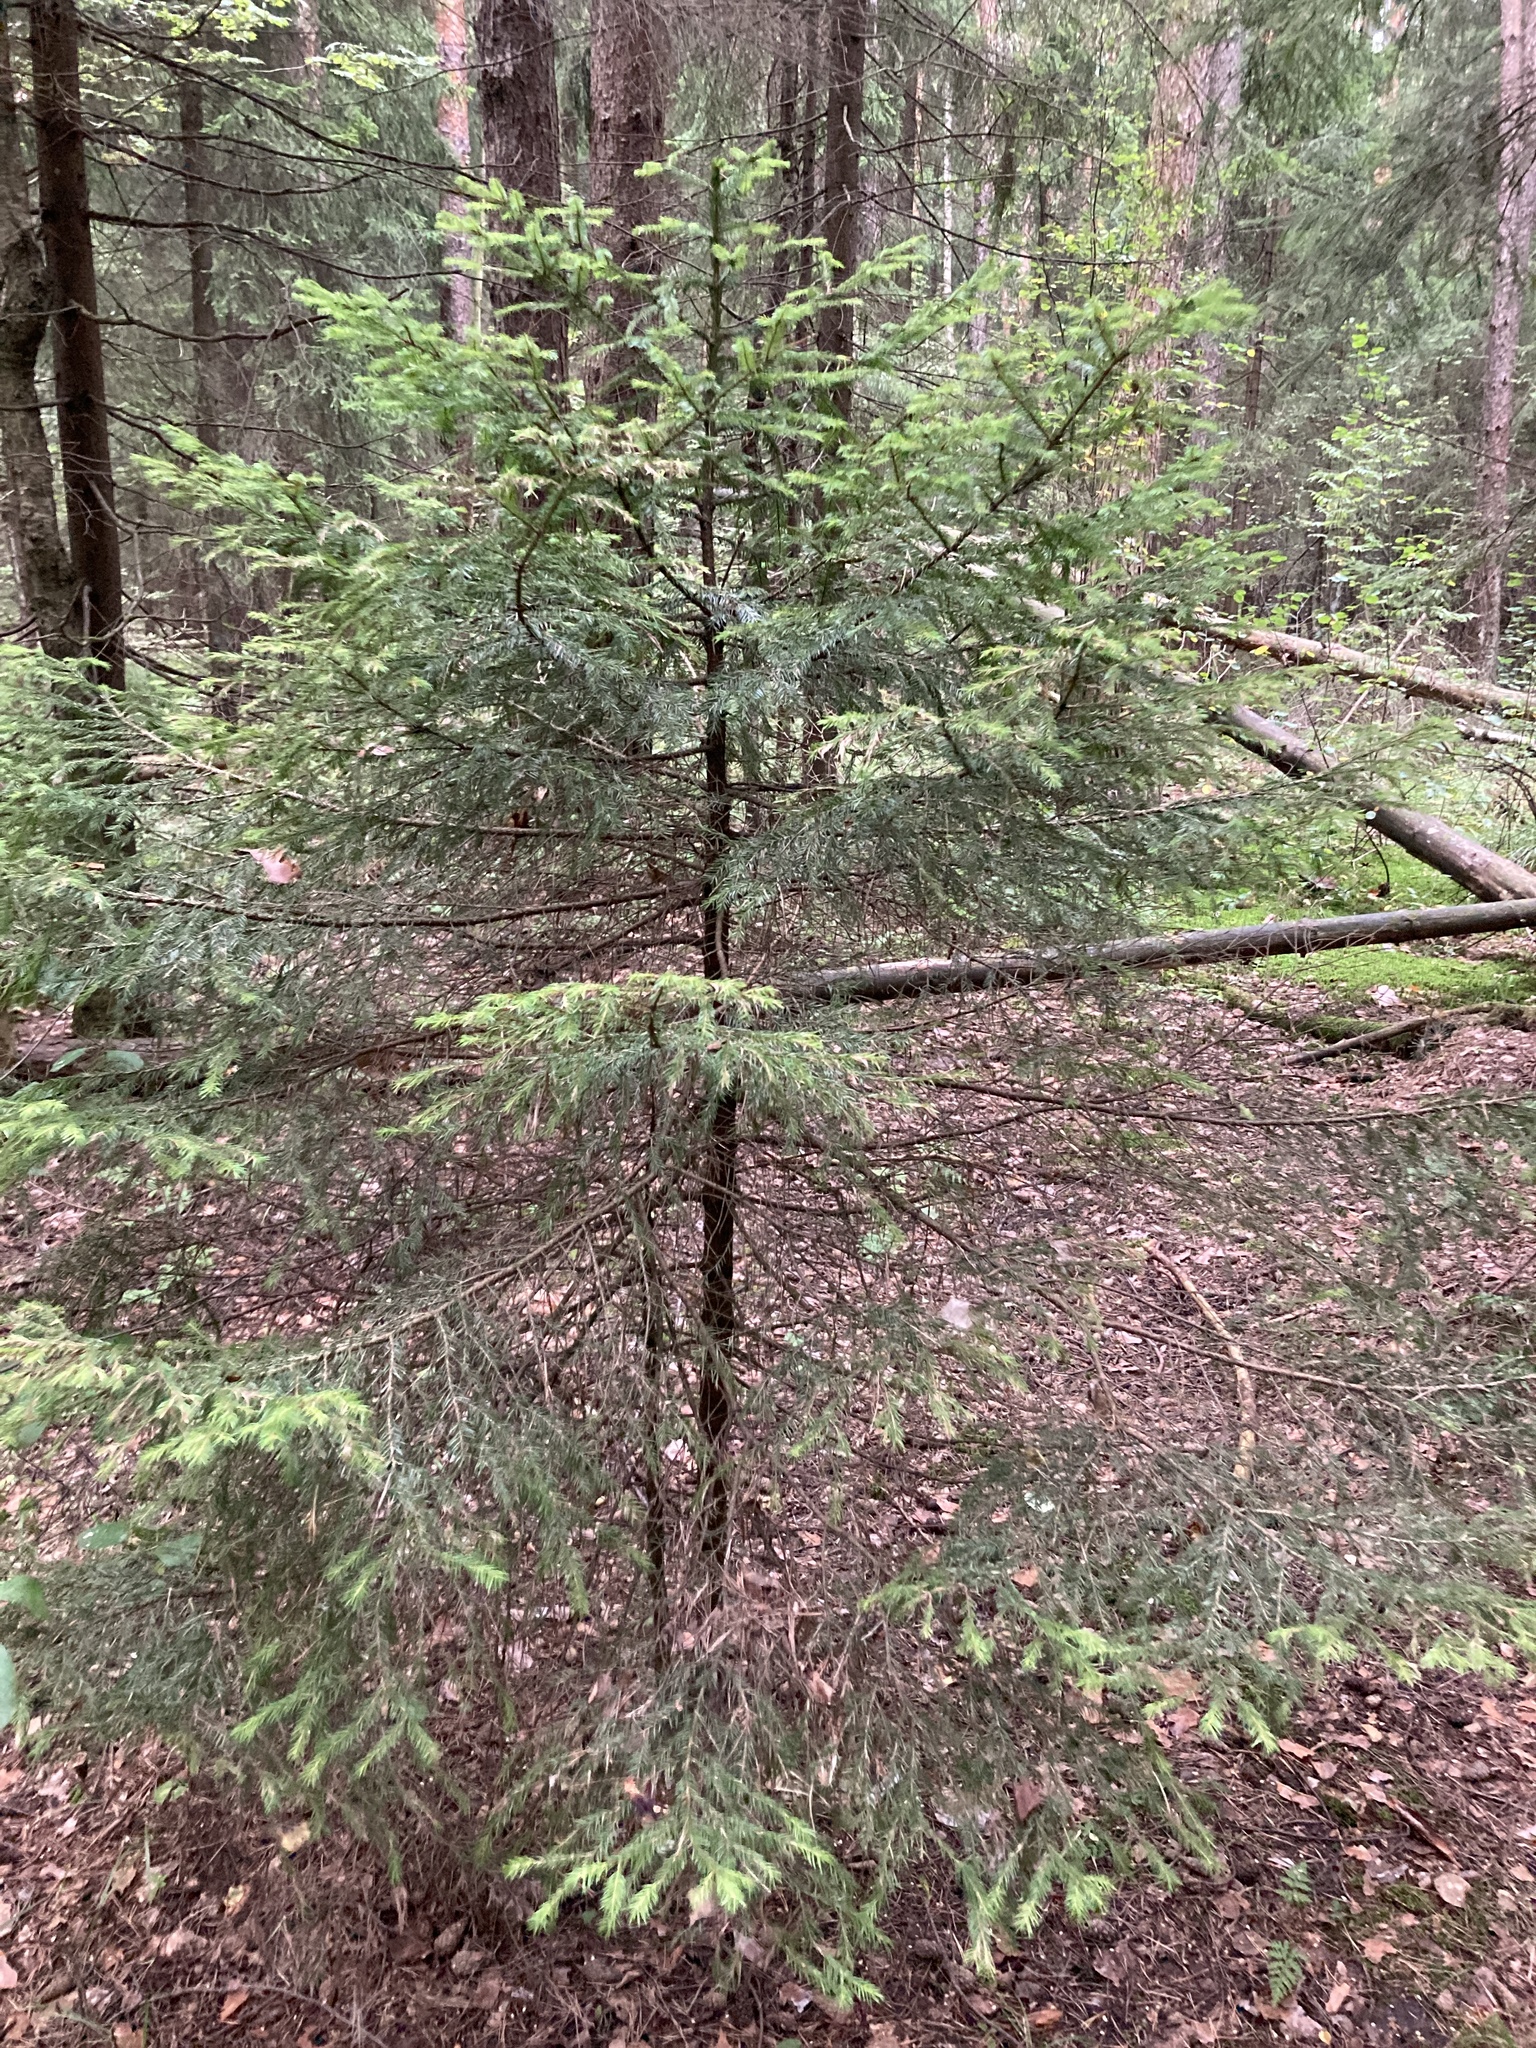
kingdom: Plantae
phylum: Tracheophyta
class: Pinopsida
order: Pinales
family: Pinaceae
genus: Picea
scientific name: Picea abies
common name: Norway spruce
